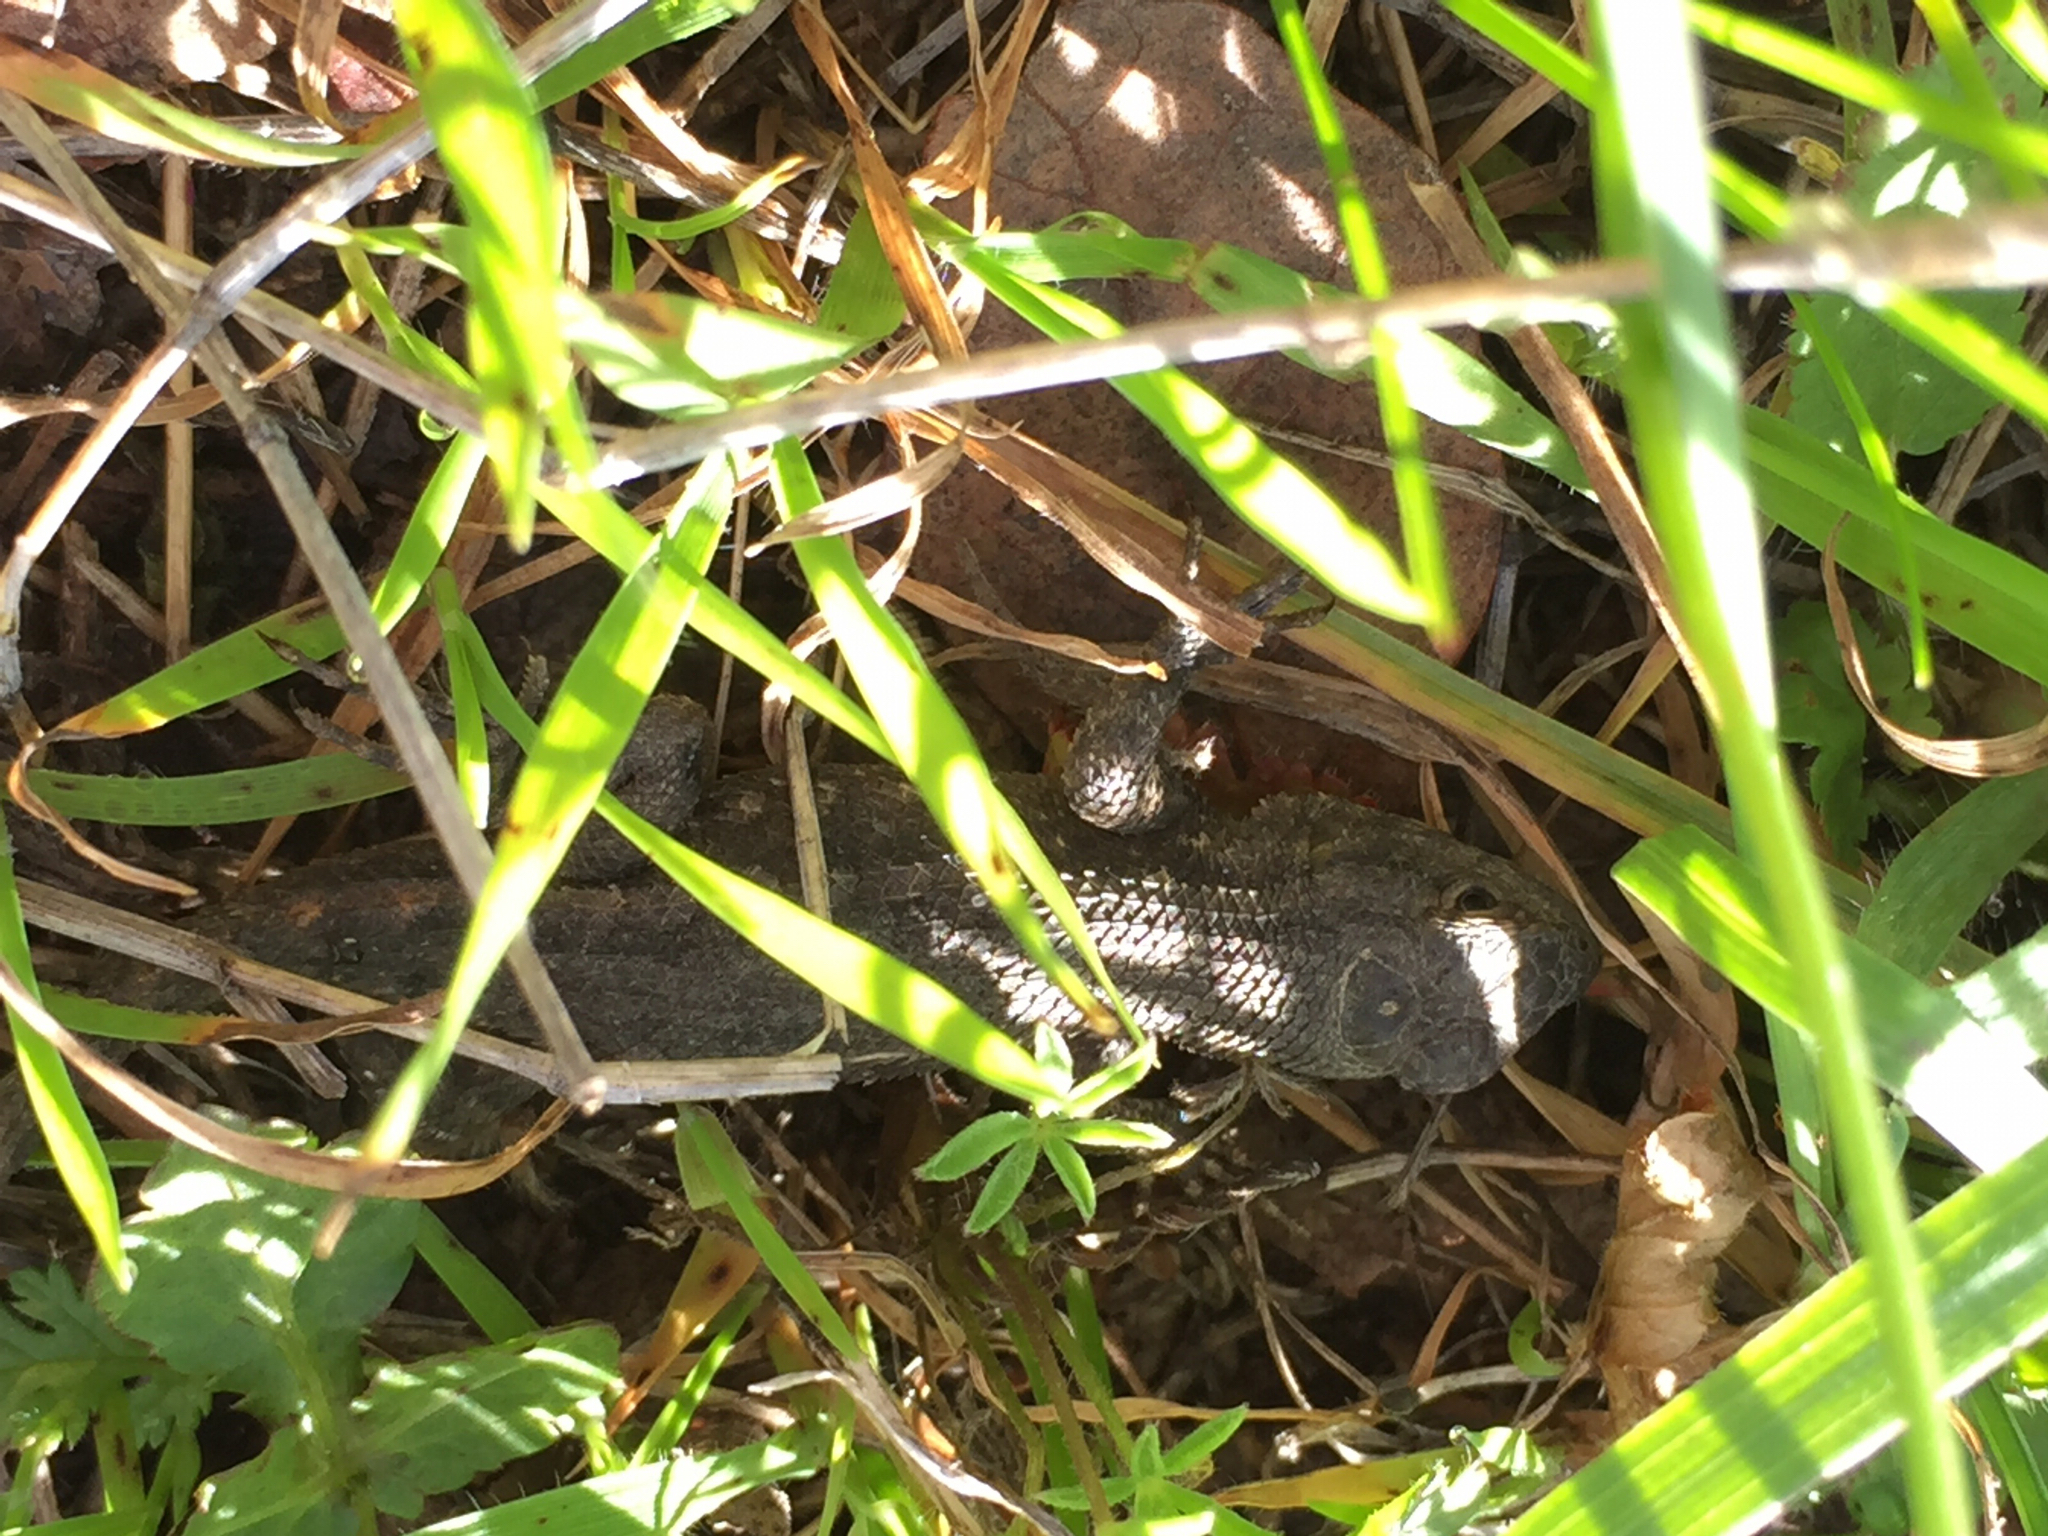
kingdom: Animalia
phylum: Chordata
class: Squamata
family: Phrynosomatidae
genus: Sceloporus
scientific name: Sceloporus occidentalis
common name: Western fence lizard
